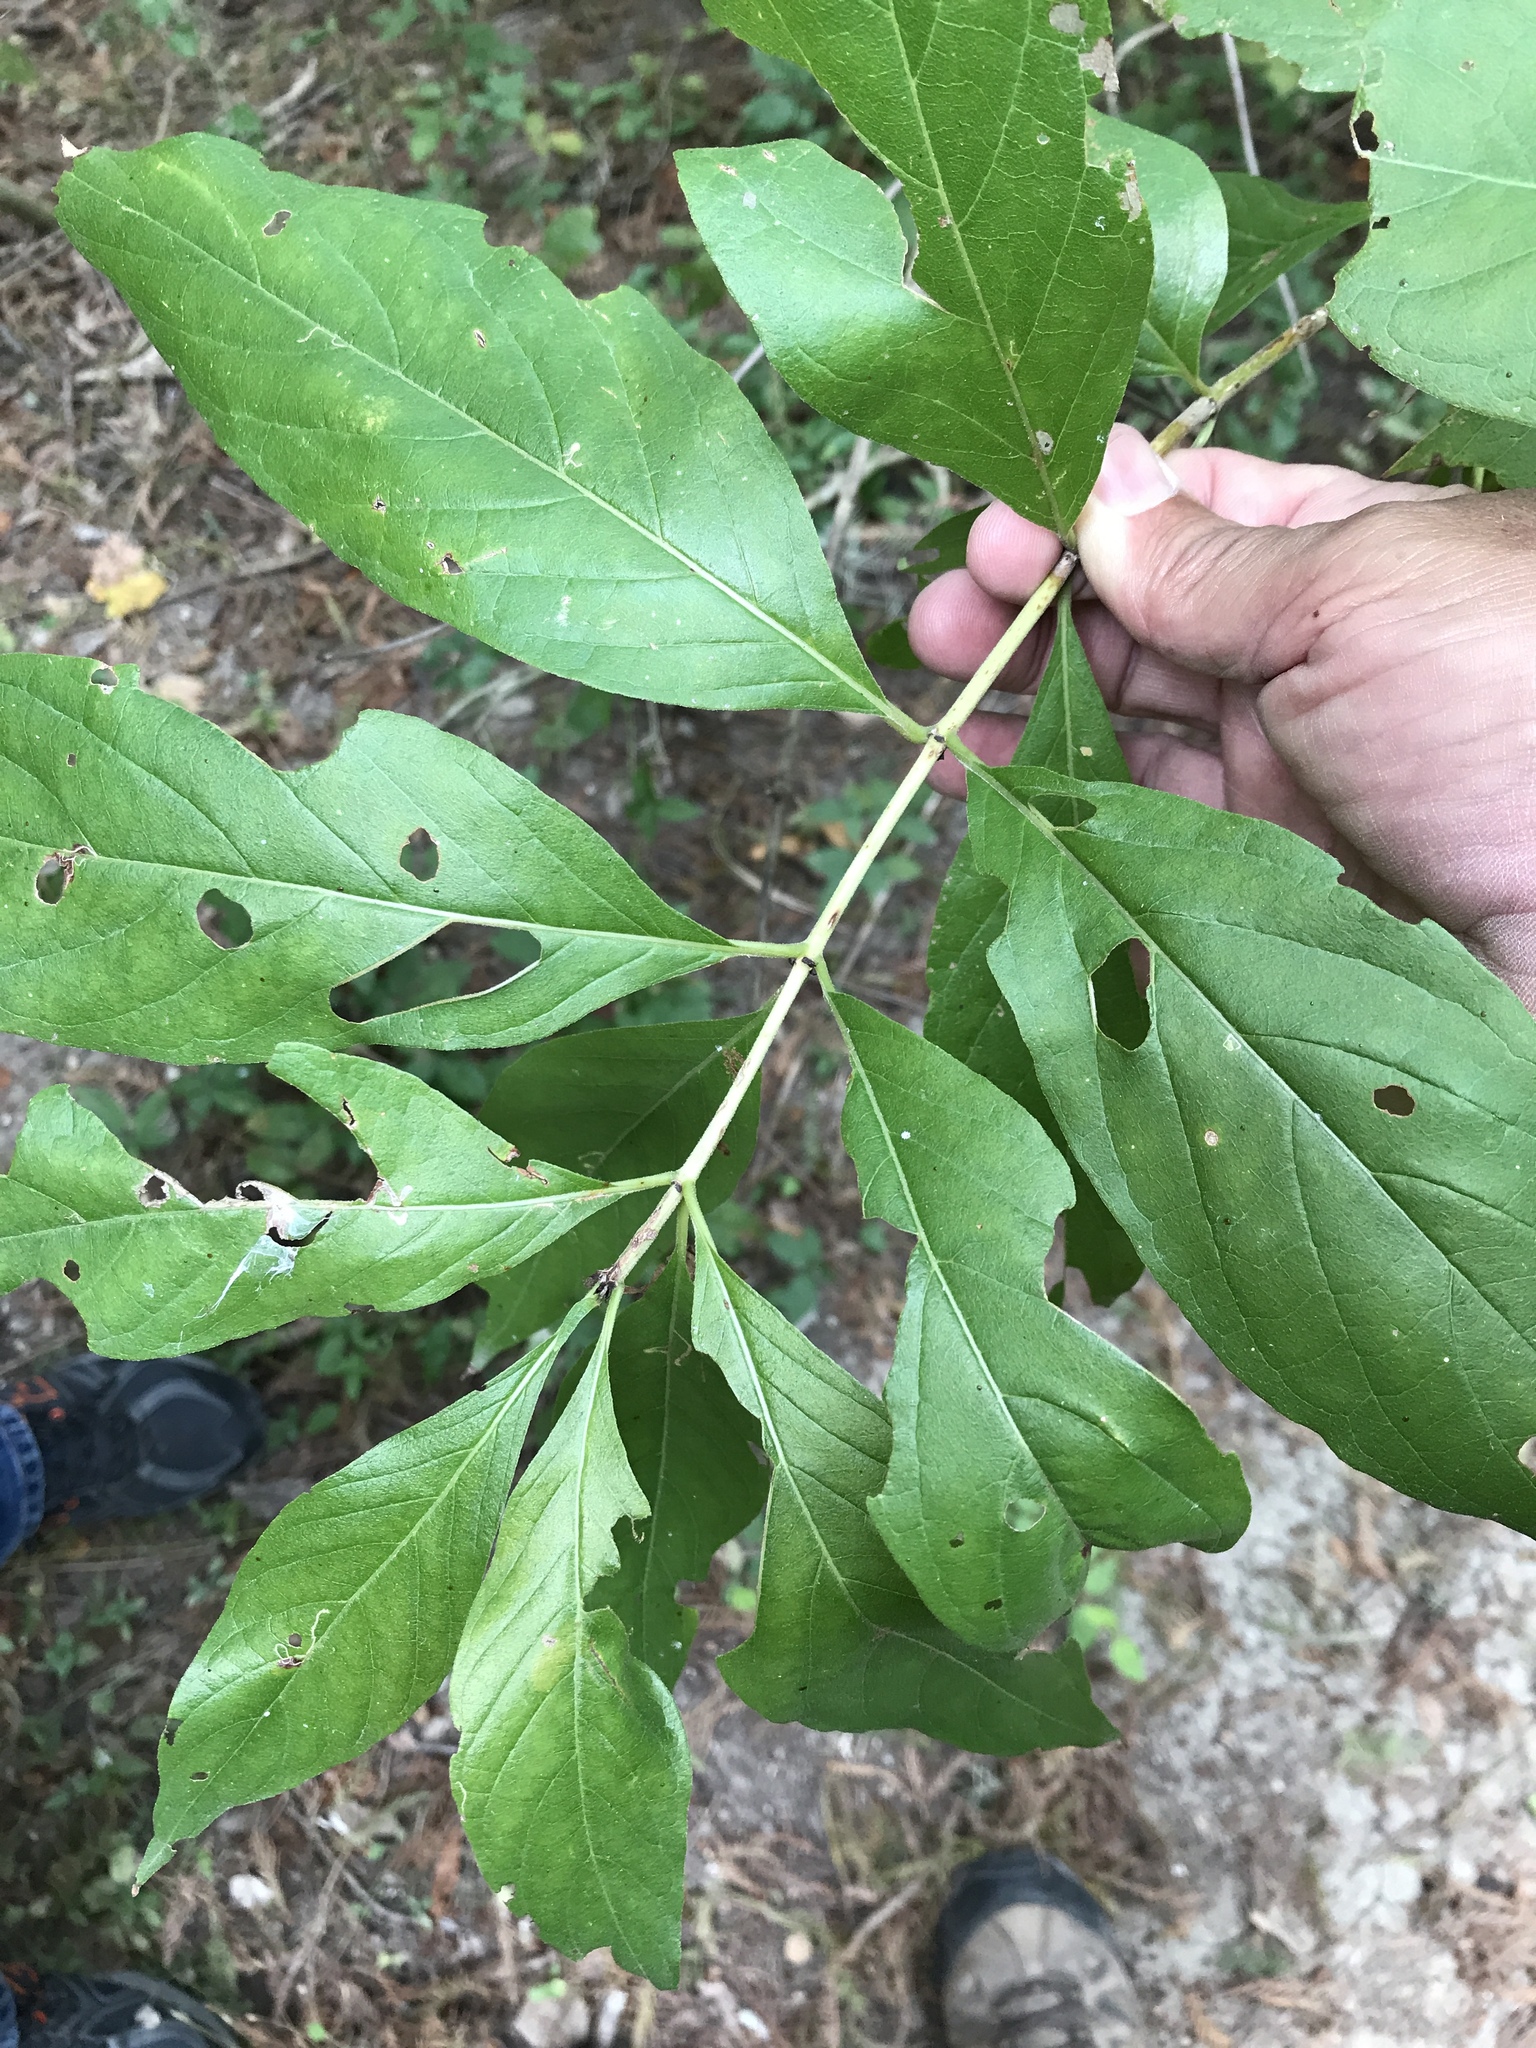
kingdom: Plantae
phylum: Tracheophyta
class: Magnoliopsida
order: Gentianales
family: Rubiaceae
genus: Cephalanthus
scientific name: Cephalanthus occidentalis
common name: Button-willow
